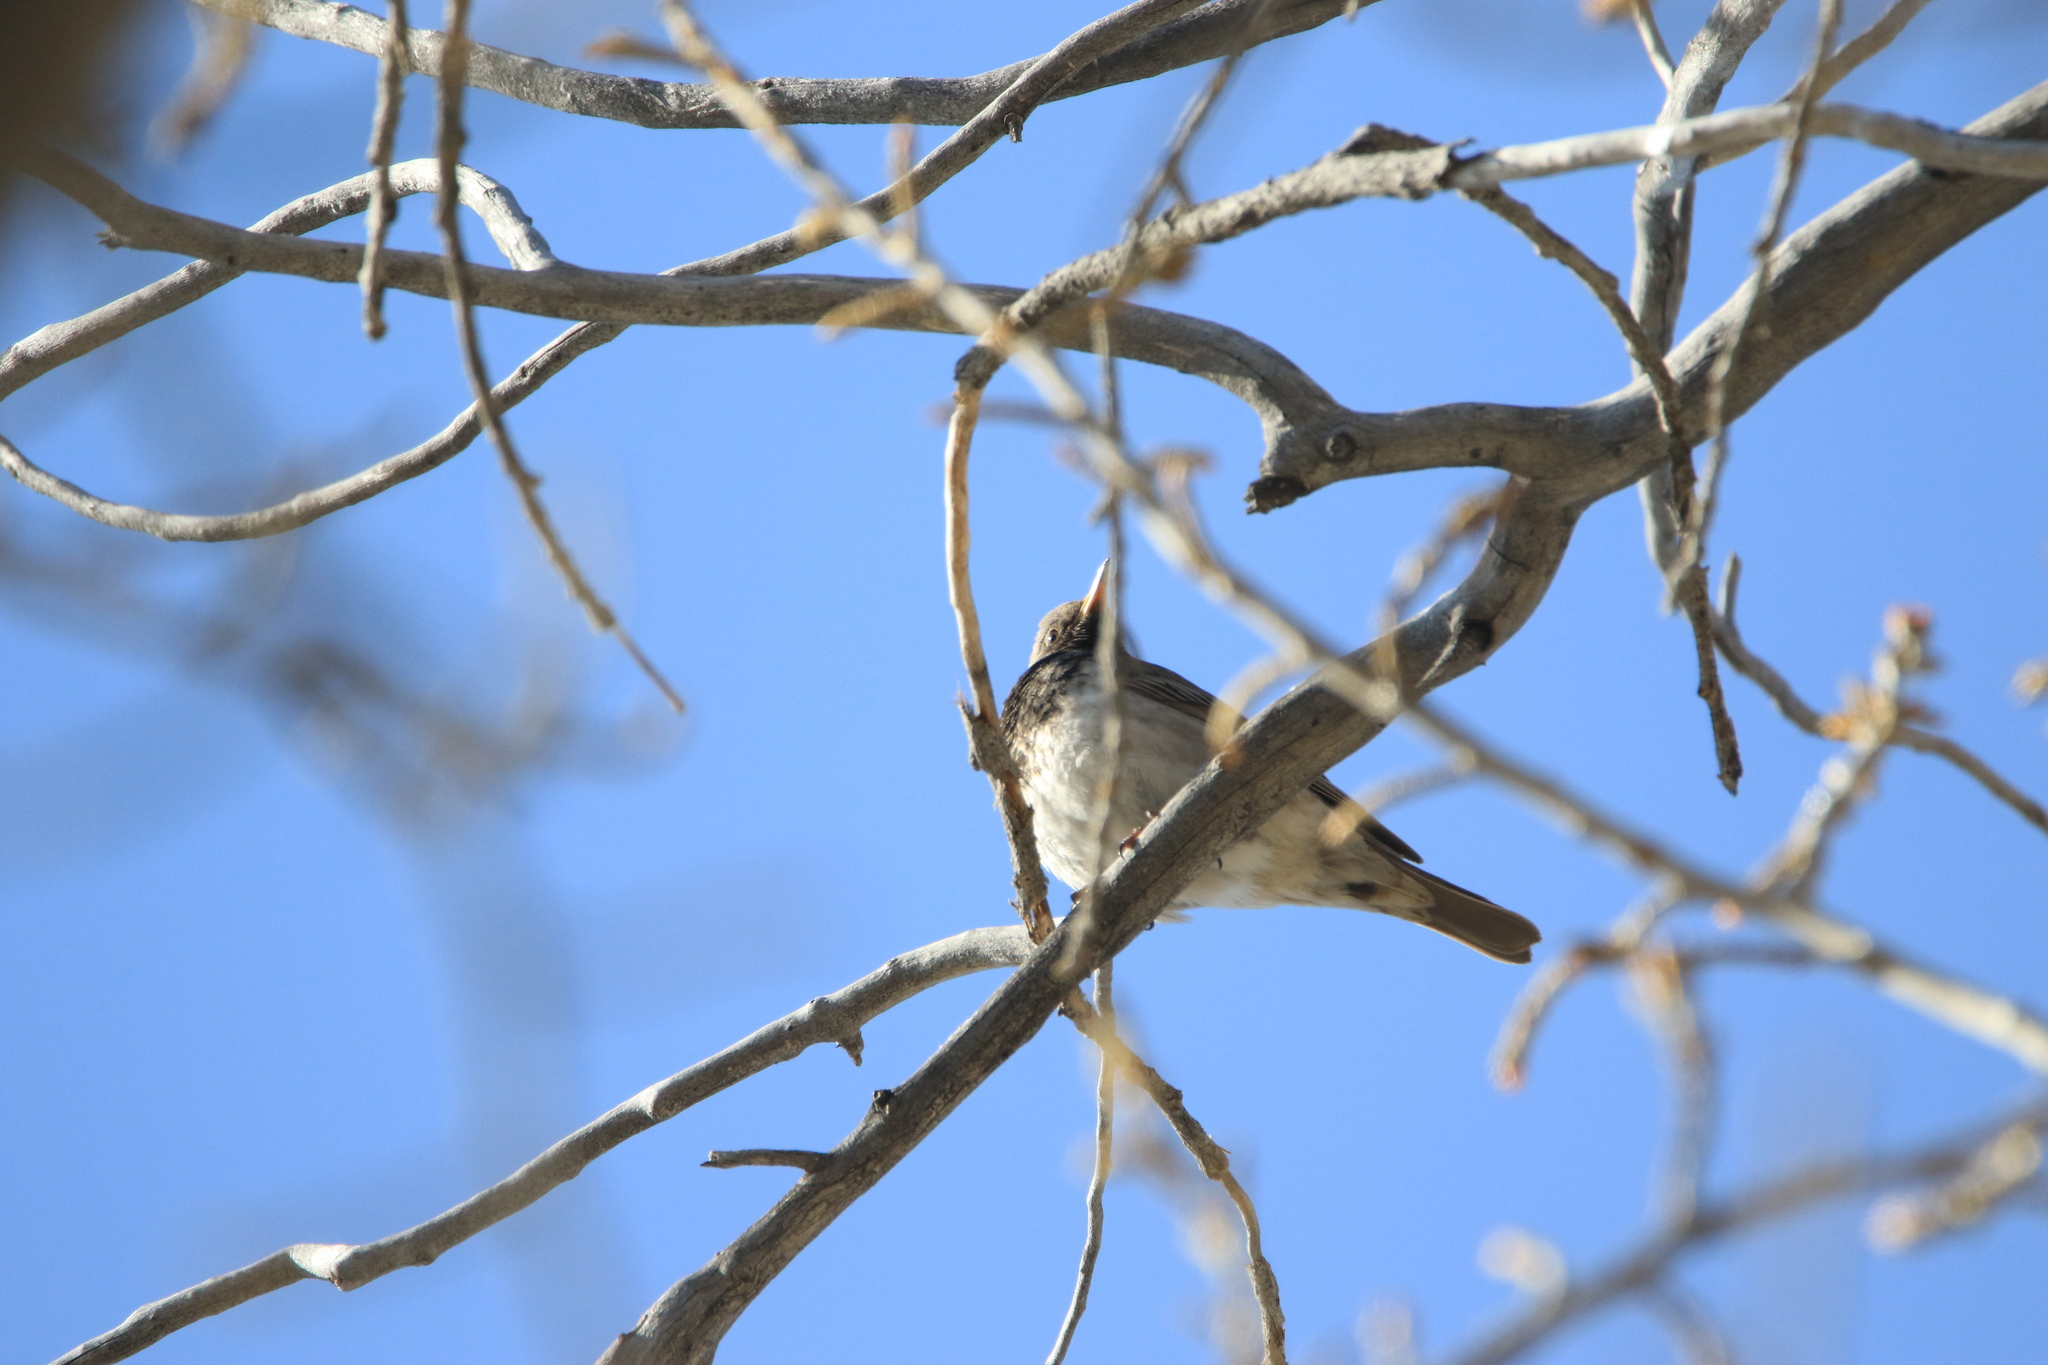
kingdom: Animalia
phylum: Chordata
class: Aves
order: Passeriformes
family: Turdidae
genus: Turdus
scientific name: Turdus atrogularis
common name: Black-throated thrush
